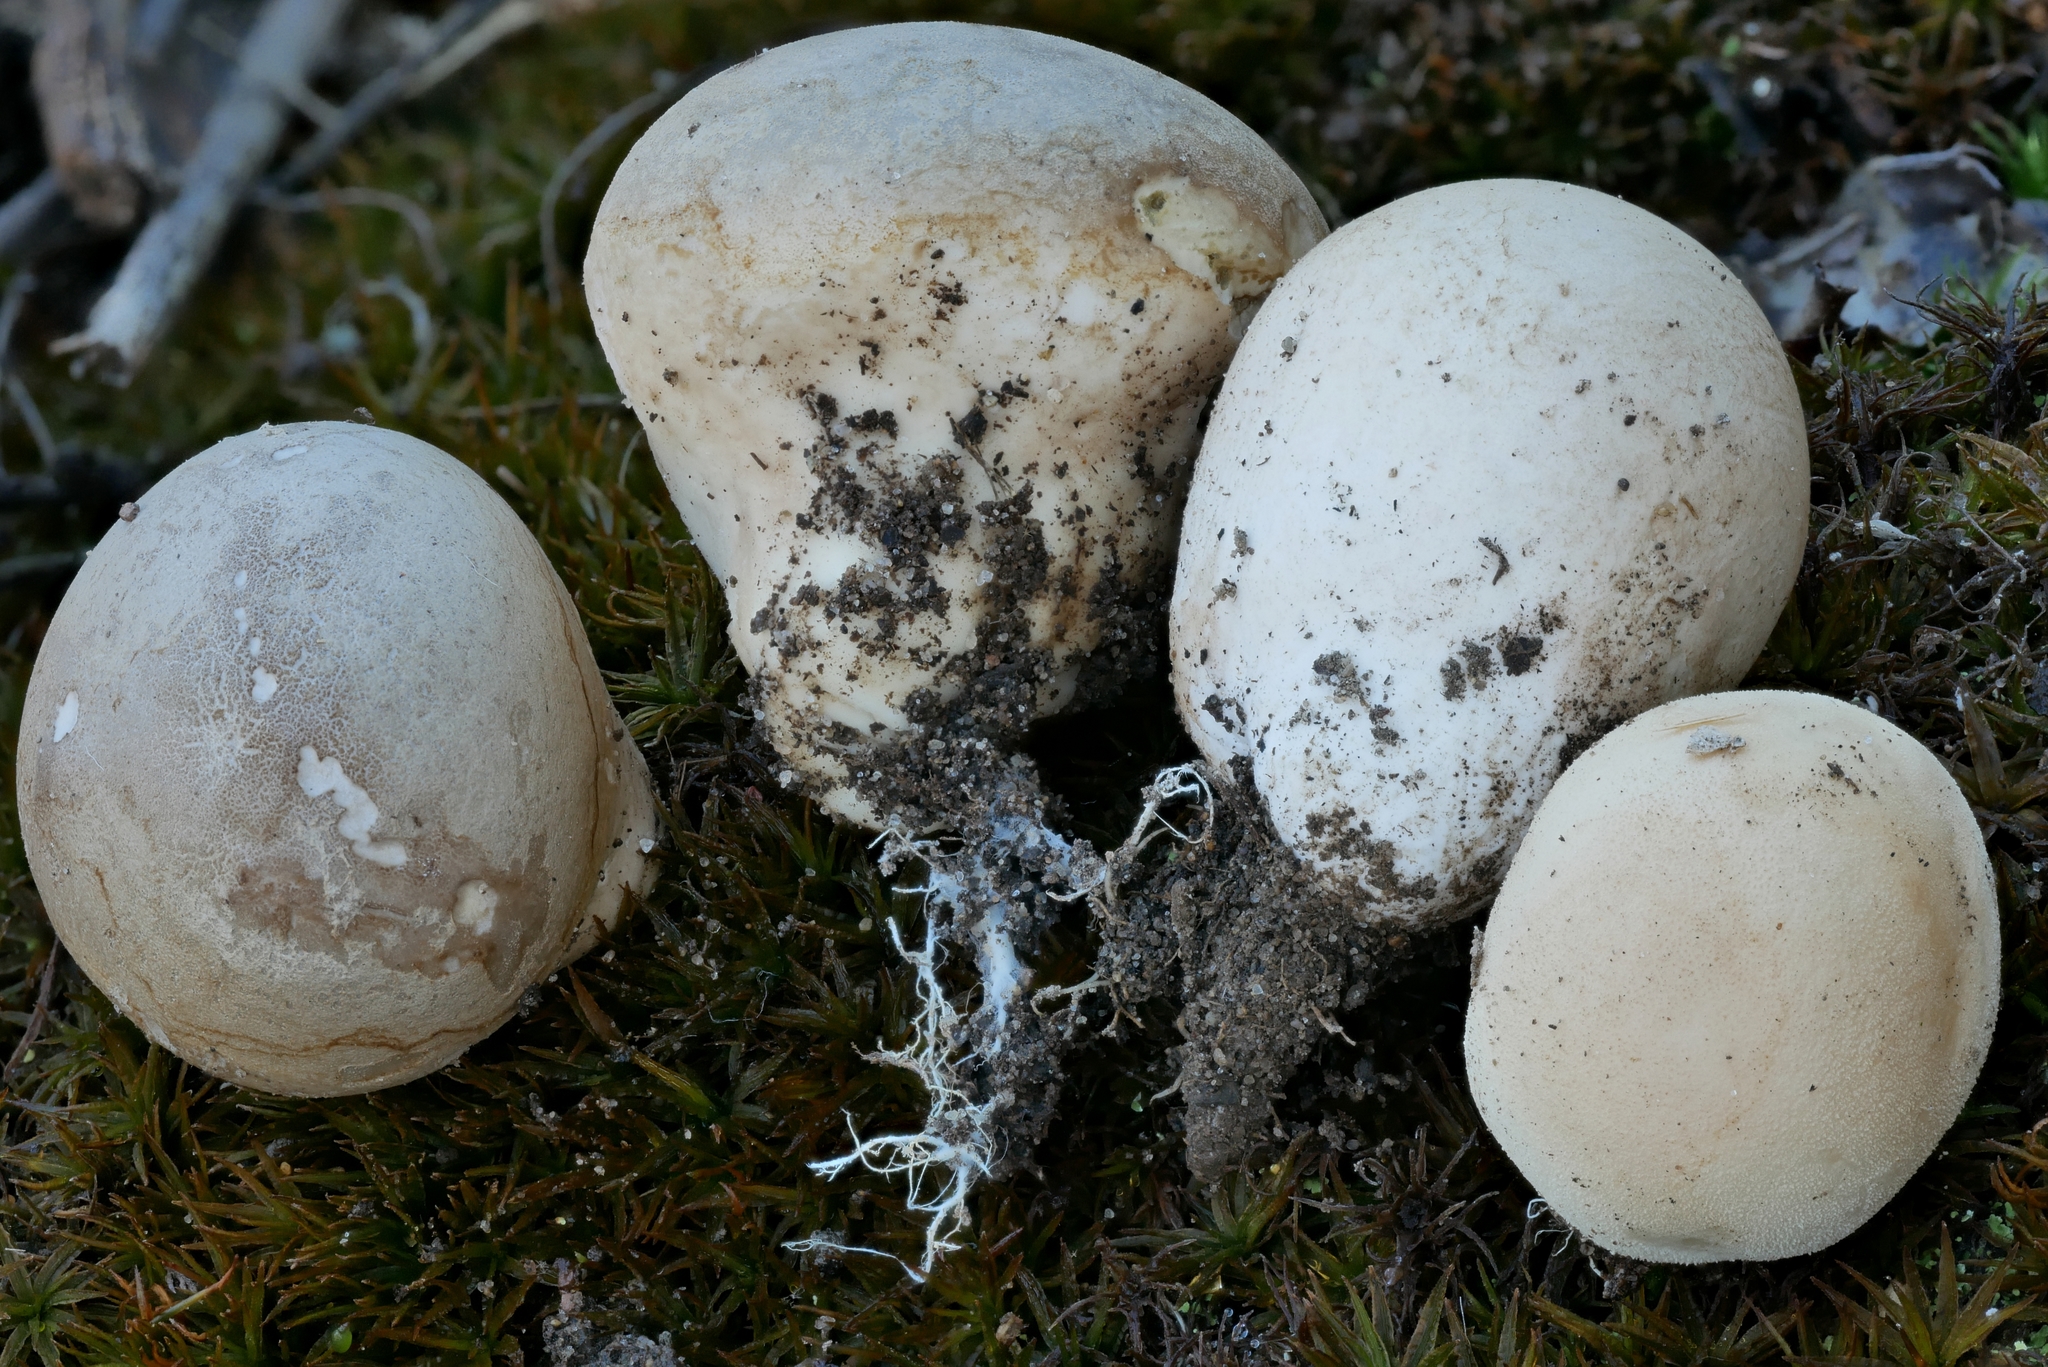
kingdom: Fungi
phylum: Basidiomycota
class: Agaricomycetes
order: Agaricales
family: Lycoperdaceae
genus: Calvatia
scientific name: Calvatia craniiformis
